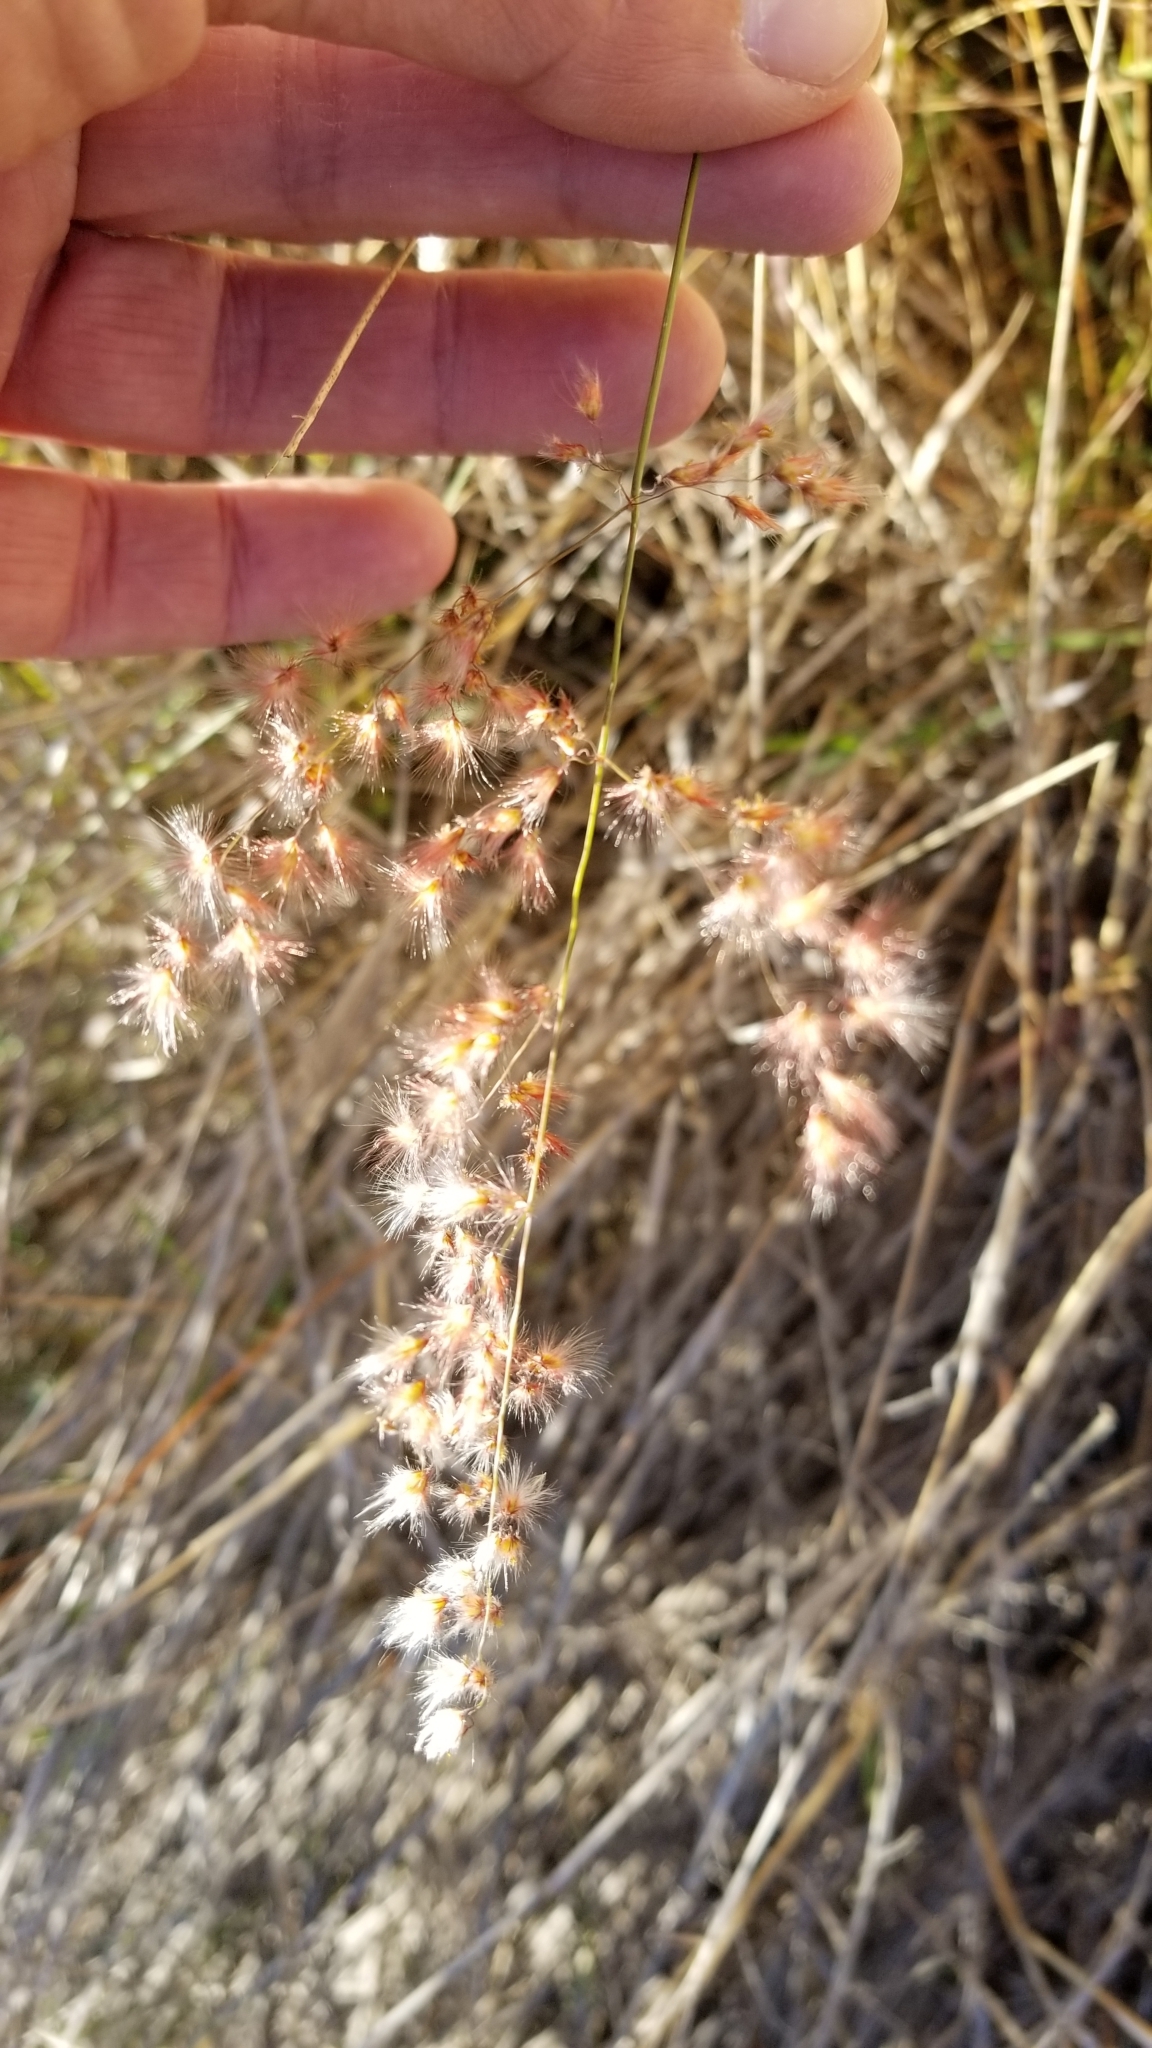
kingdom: Plantae
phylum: Tracheophyta
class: Liliopsida
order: Poales
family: Poaceae
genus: Melinis
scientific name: Melinis repens
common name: Rose natal grass
